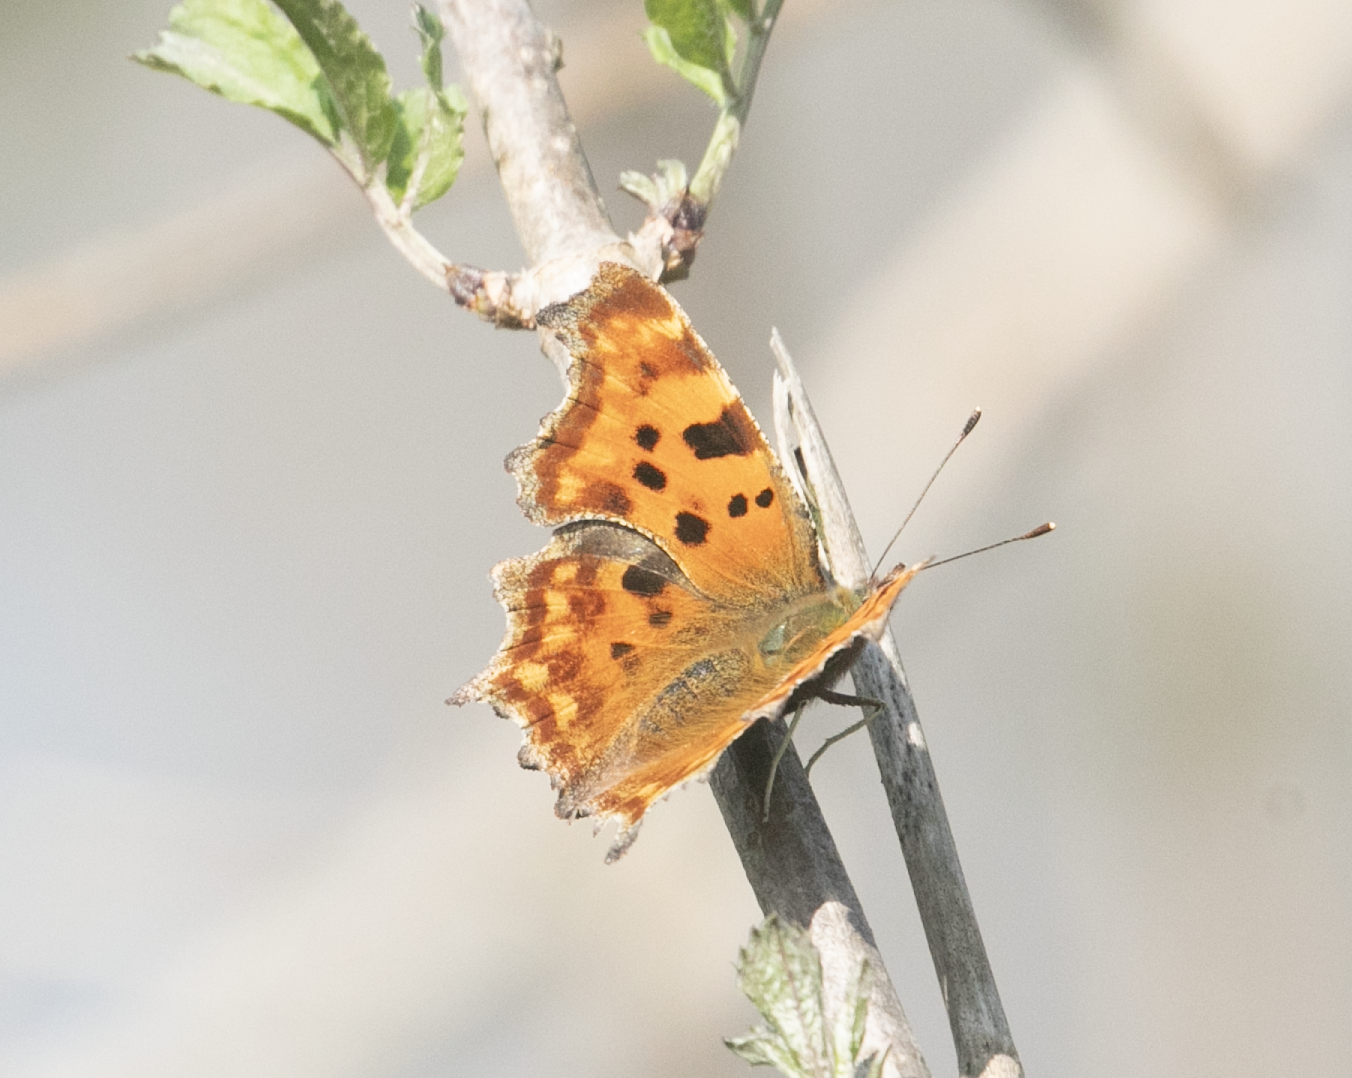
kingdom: Animalia
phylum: Arthropoda
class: Insecta
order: Lepidoptera
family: Nymphalidae
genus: Polygonia
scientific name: Polygonia c-album
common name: Comma
